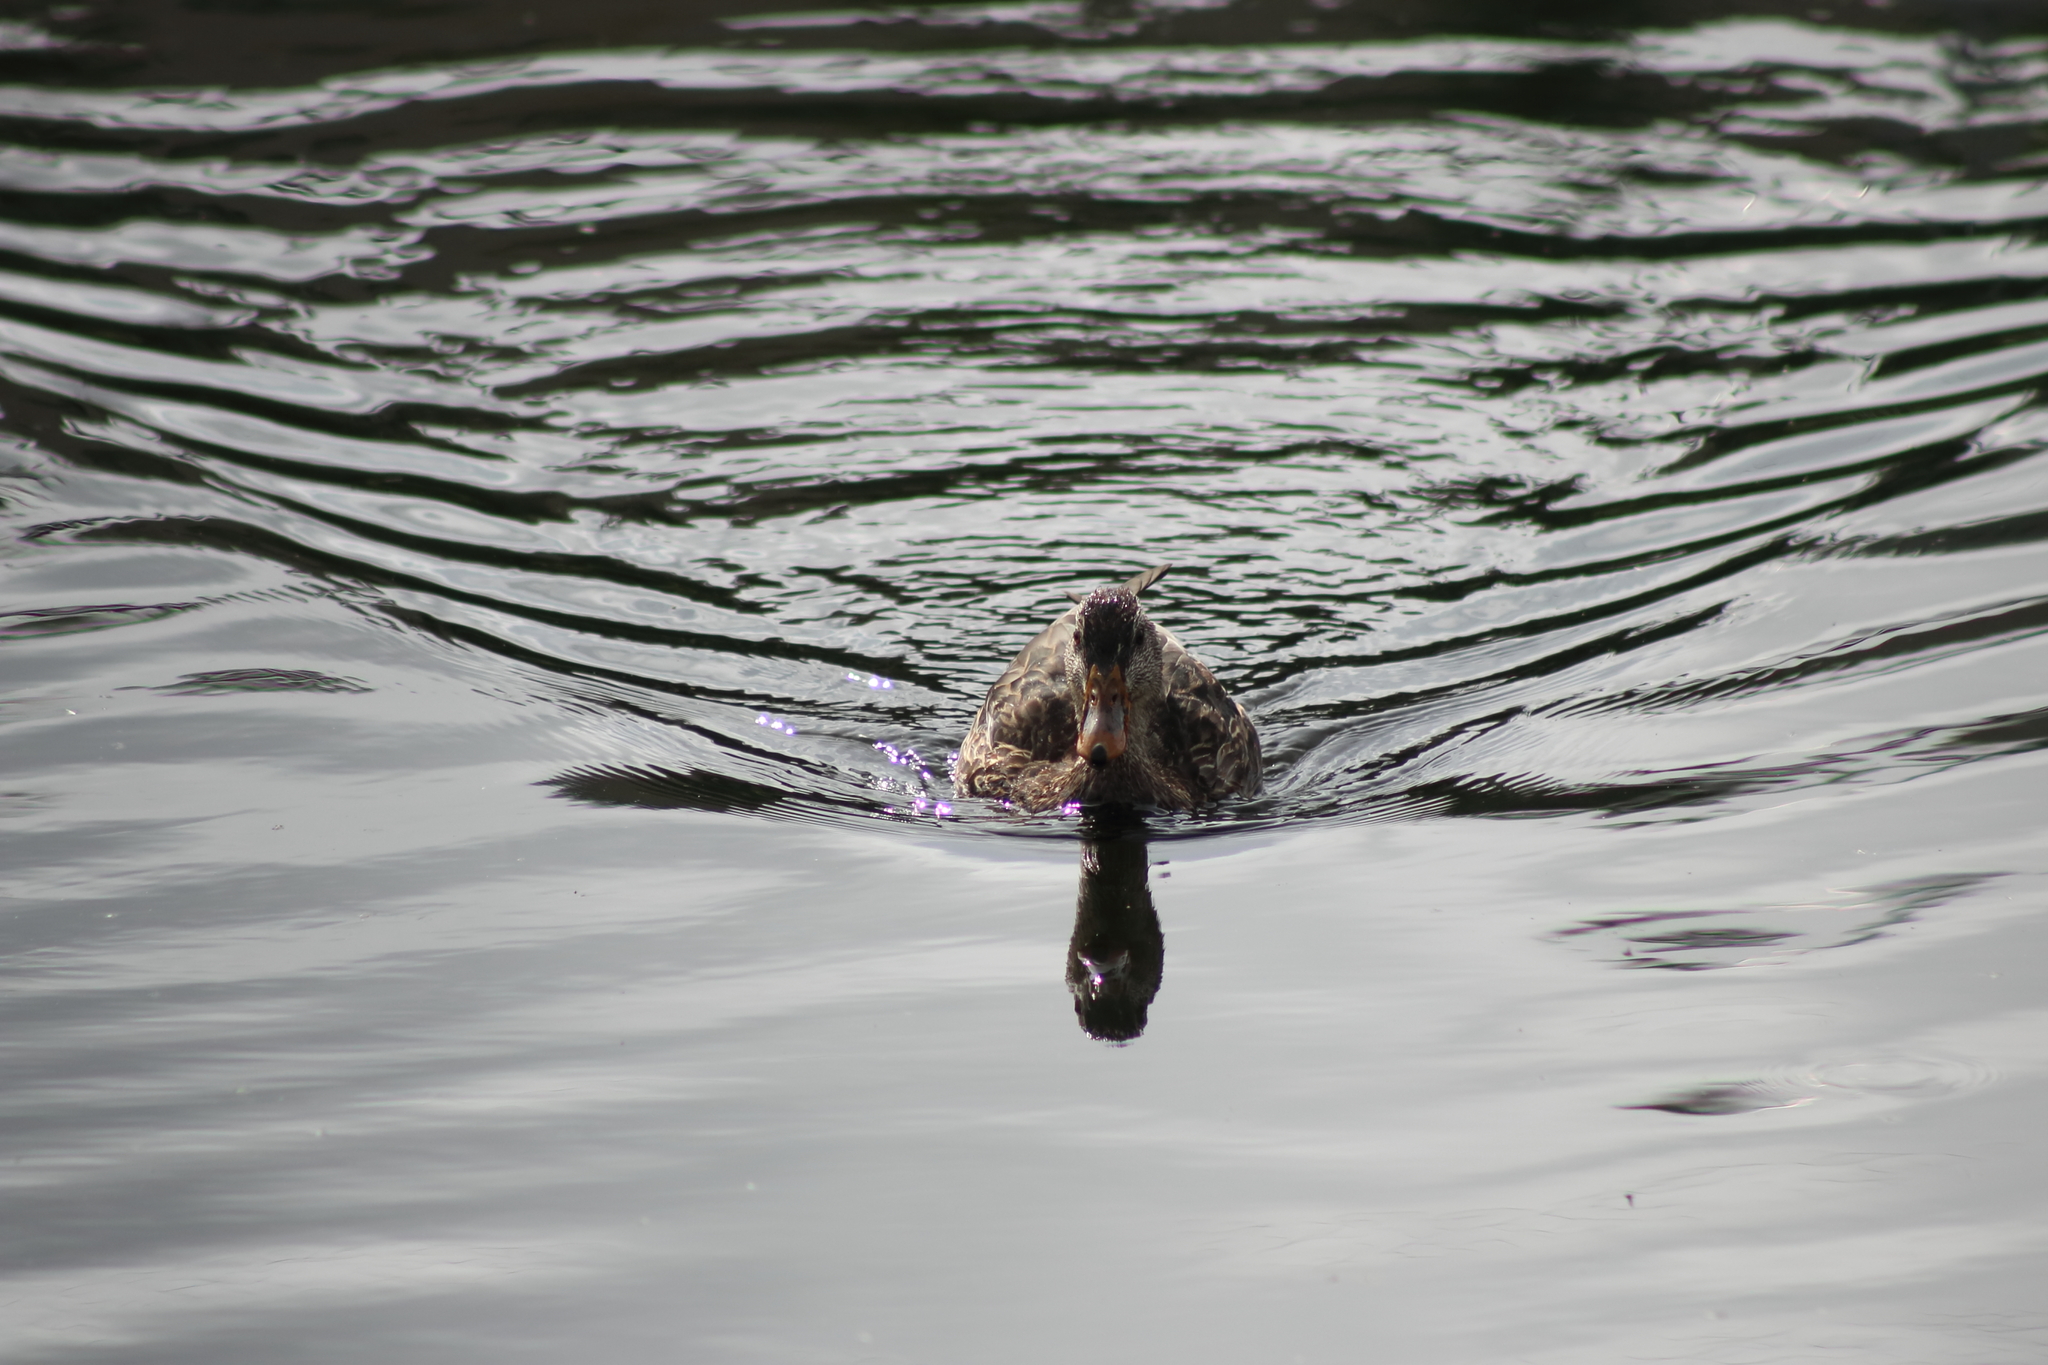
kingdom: Animalia
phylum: Chordata
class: Aves
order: Anseriformes
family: Anatidae
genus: Anas
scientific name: Anas platyrhynchos
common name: Mallard
